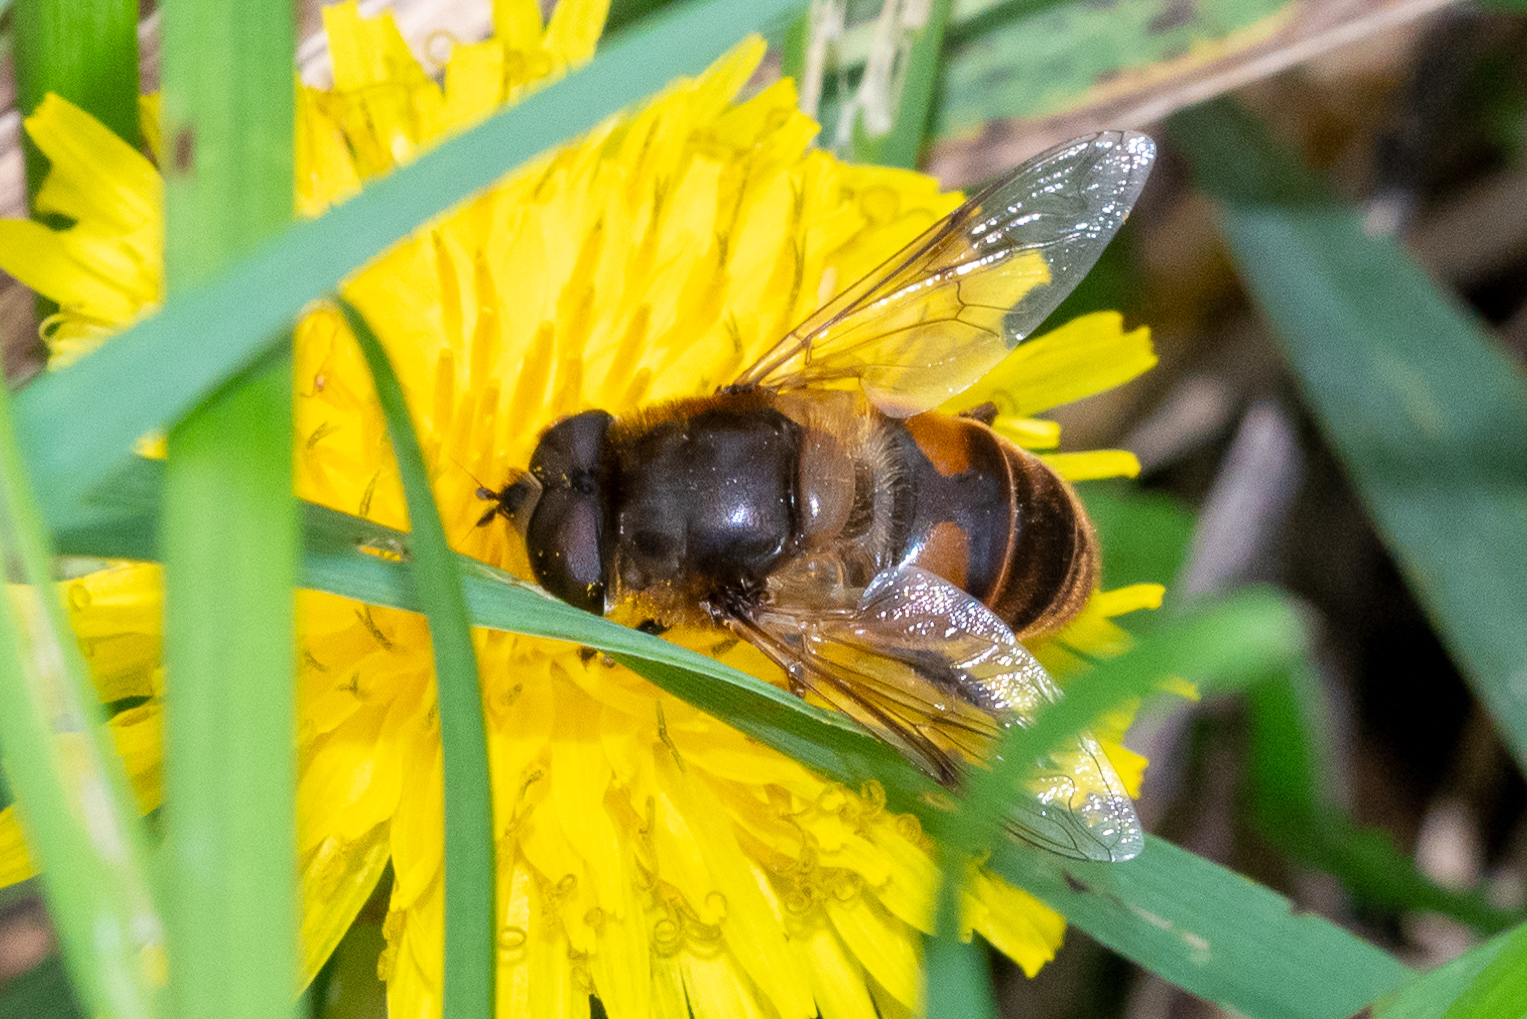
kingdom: Animalia
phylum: Arthropoda
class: Insecta
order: Diptera
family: Syrphidae
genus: Eristalis
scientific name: Eristalis tenax
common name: Drone fly
